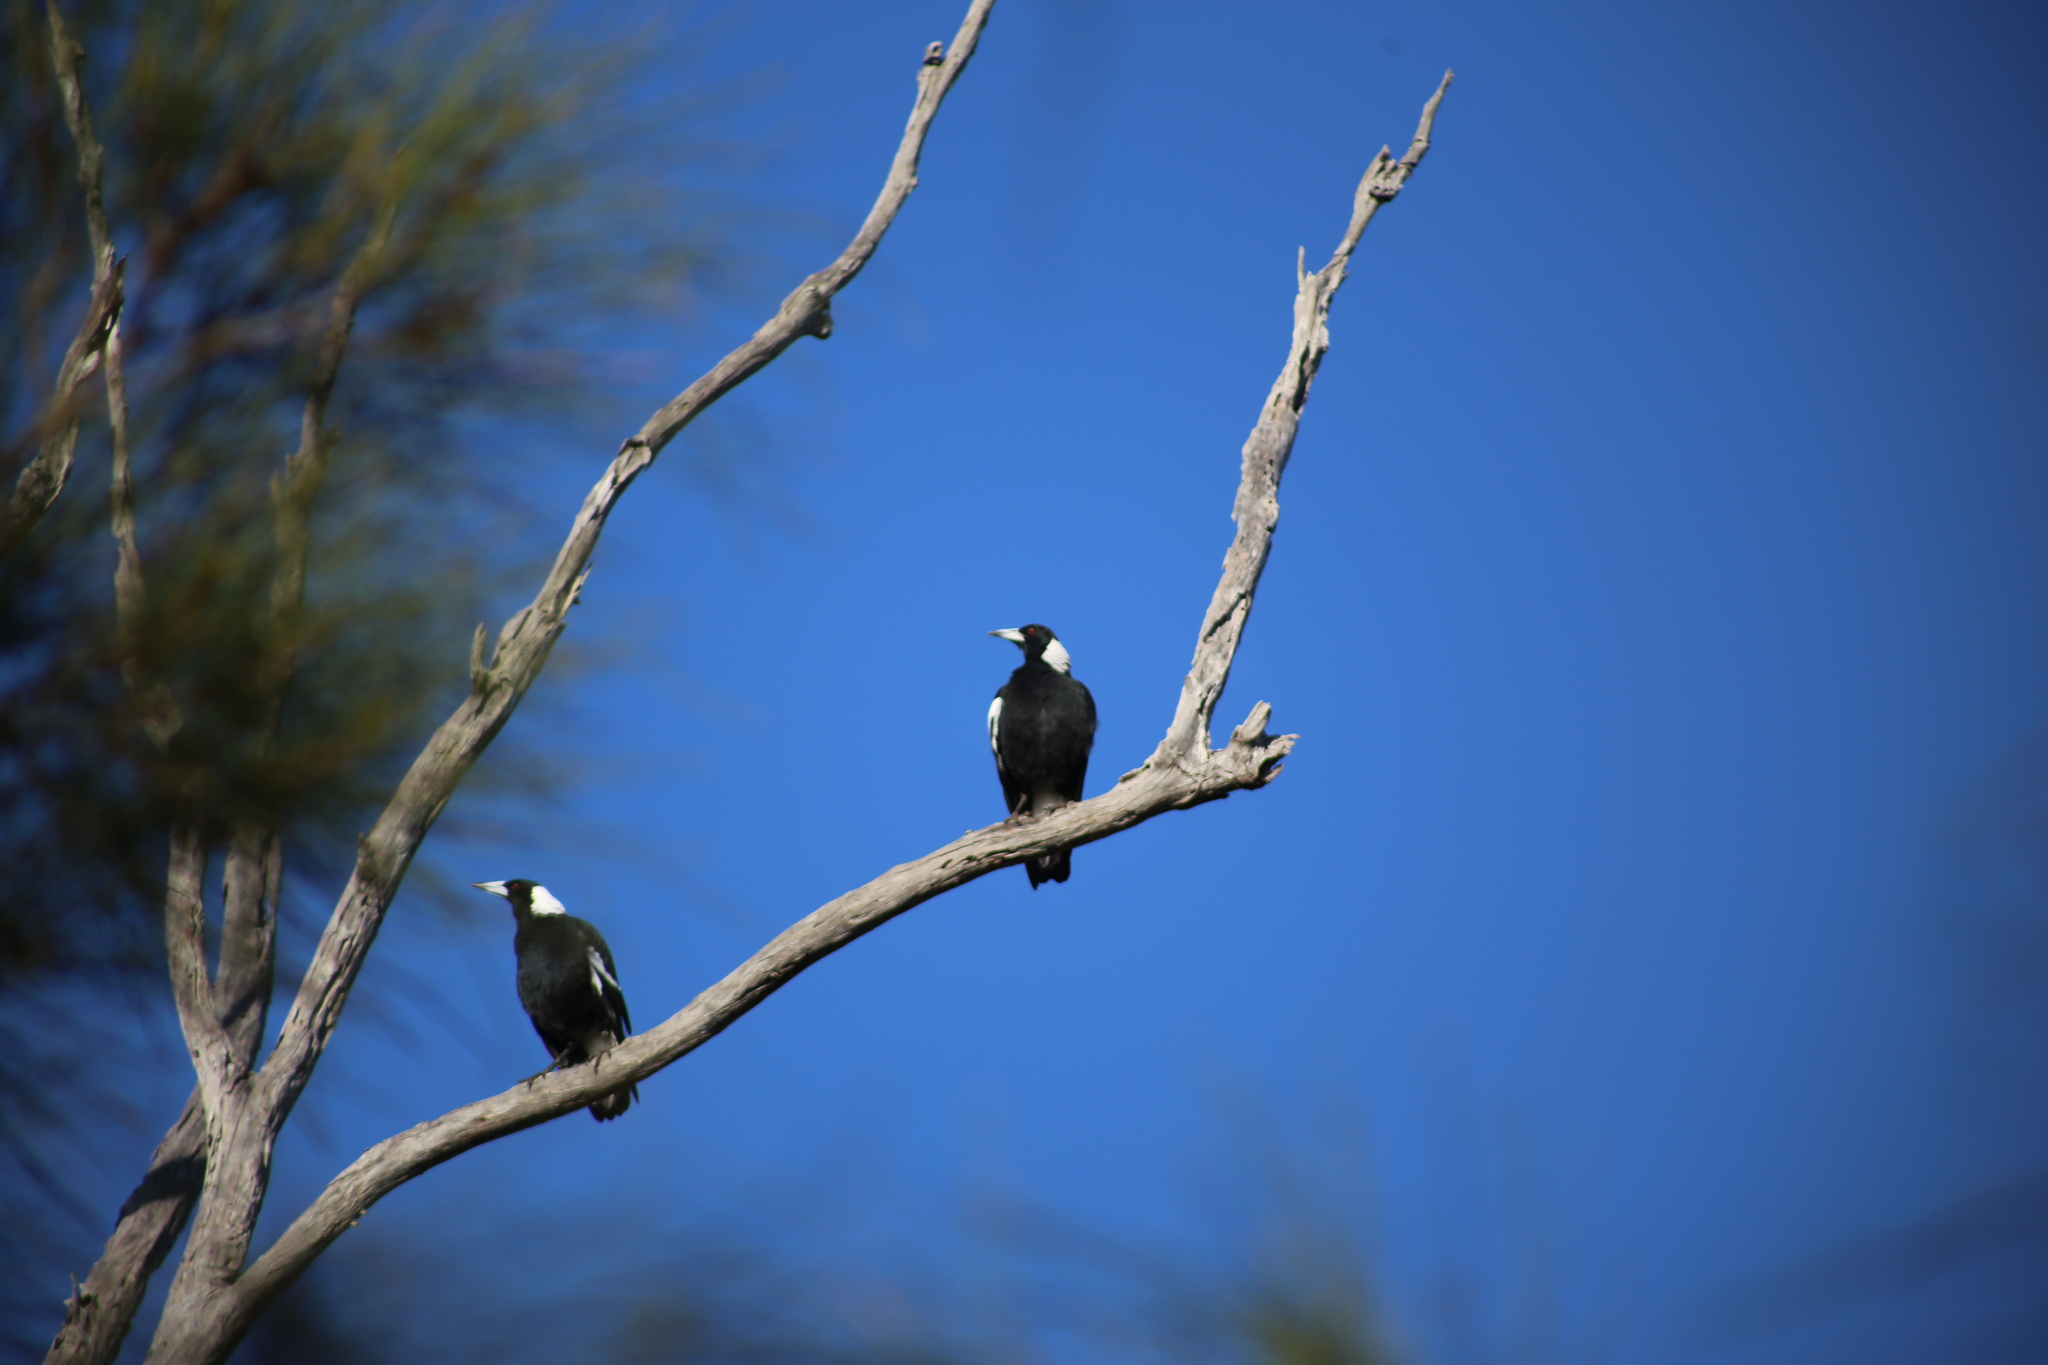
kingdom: Animalia
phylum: Chordata
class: Aves
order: Passeriformes
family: Cracticidae
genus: Gymnorhina
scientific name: Gymnorhina tibicen
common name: Australian magpie
